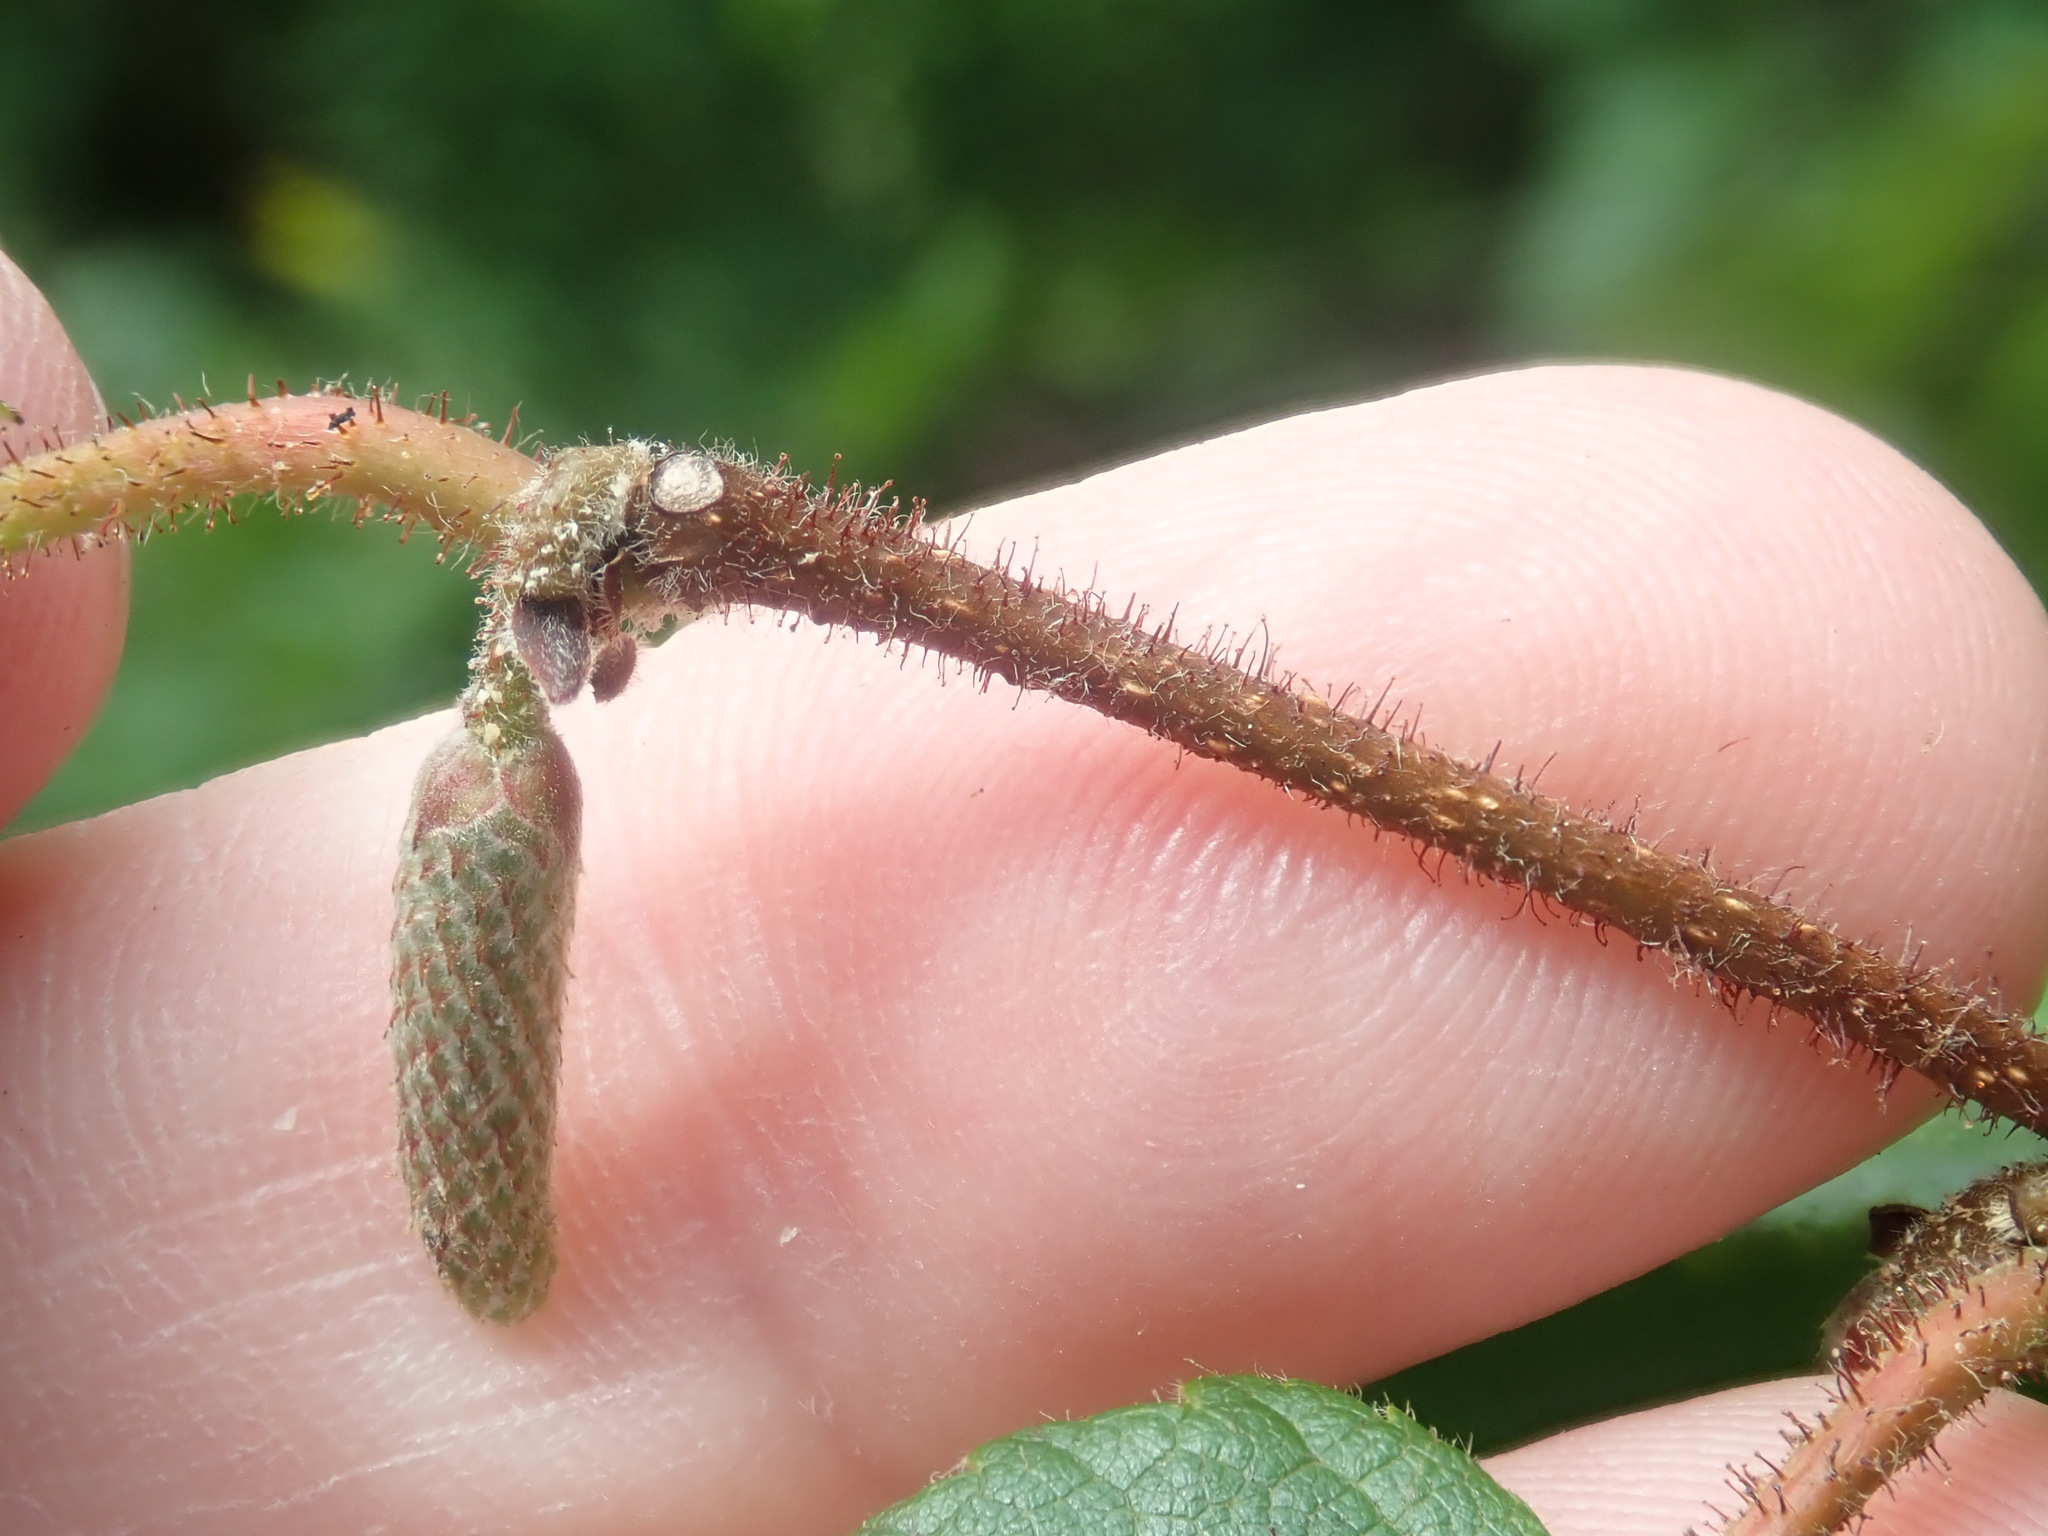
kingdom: Plantae
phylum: Tracheophyta
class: Magnoliopsida
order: Fagales
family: Betulaceae
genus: Corylus
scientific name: Corylus americana
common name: American hazel
